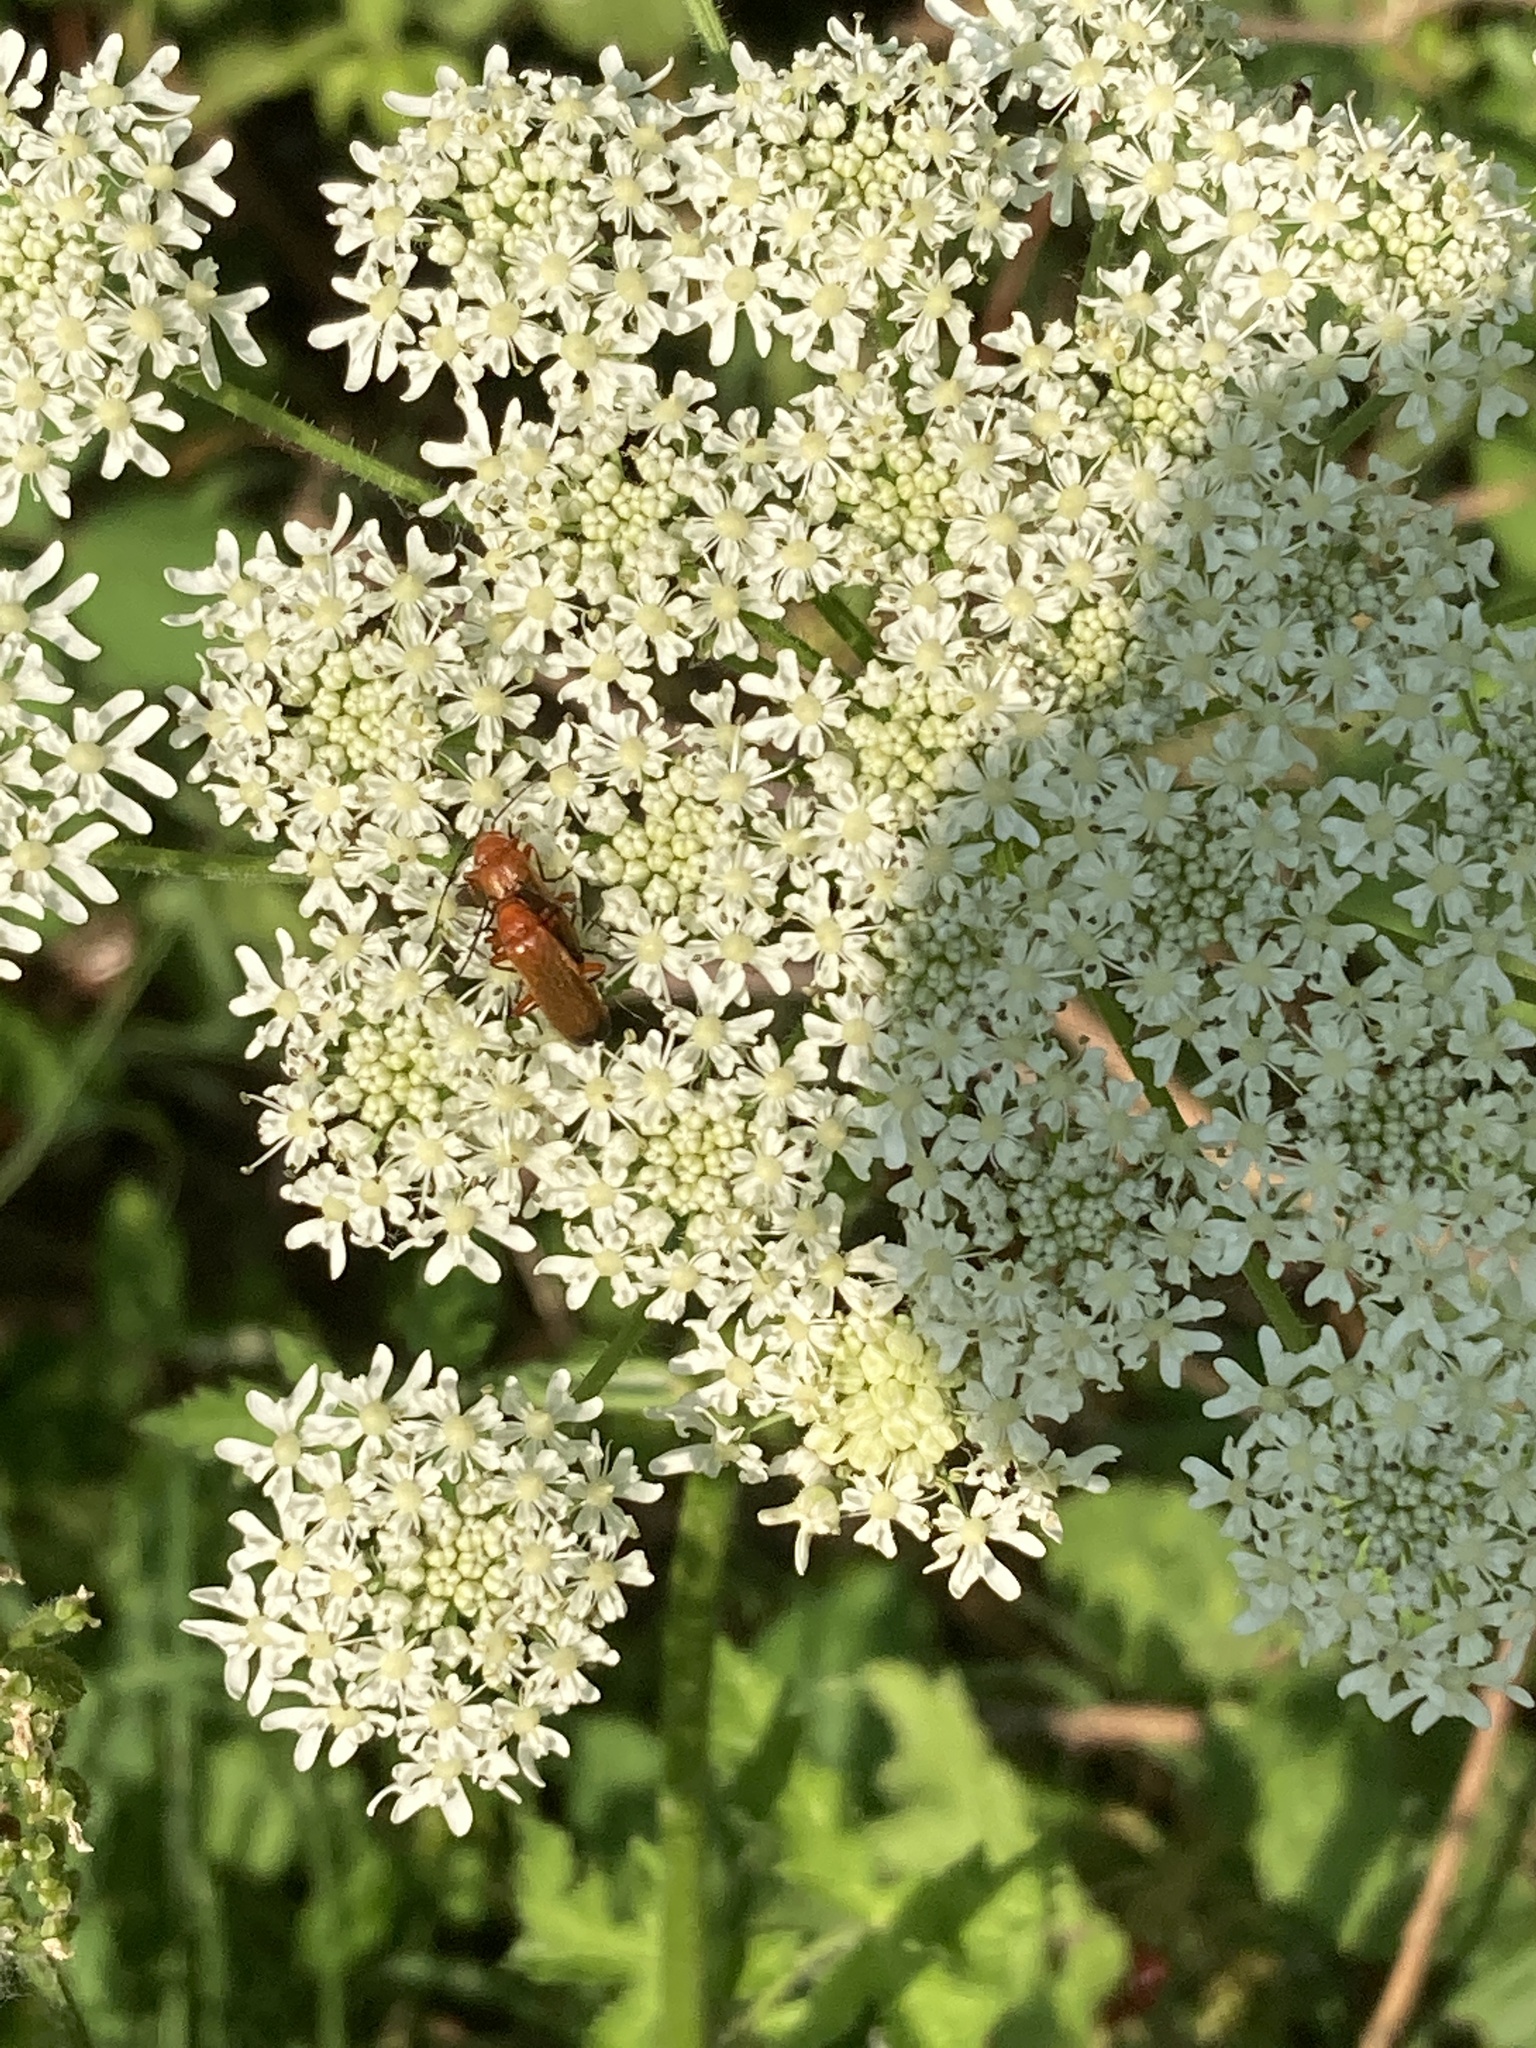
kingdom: Animalia
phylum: Arthropoda
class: Insecta
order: Coleoptera
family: Cantharidae
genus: Rhagonycha
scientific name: Rhagonycha fulva
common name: Common red soldier beetle
